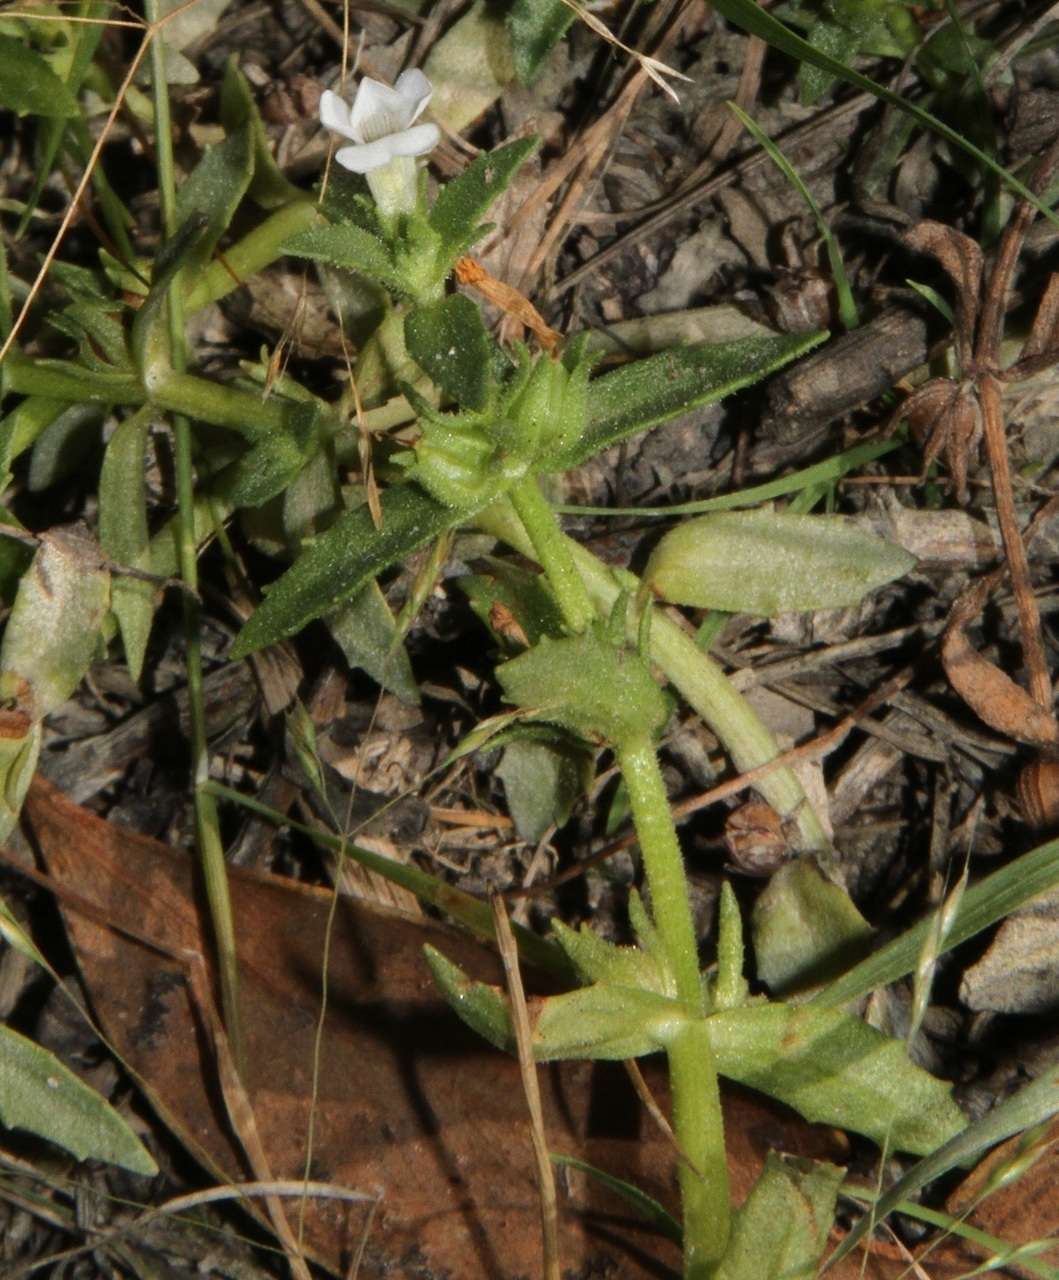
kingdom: Plantae
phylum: Tracheophyta
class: Magnoliopsida
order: Lamiales
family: Plantaginaceae
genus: Gratiola
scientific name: Gratiola pubescens
